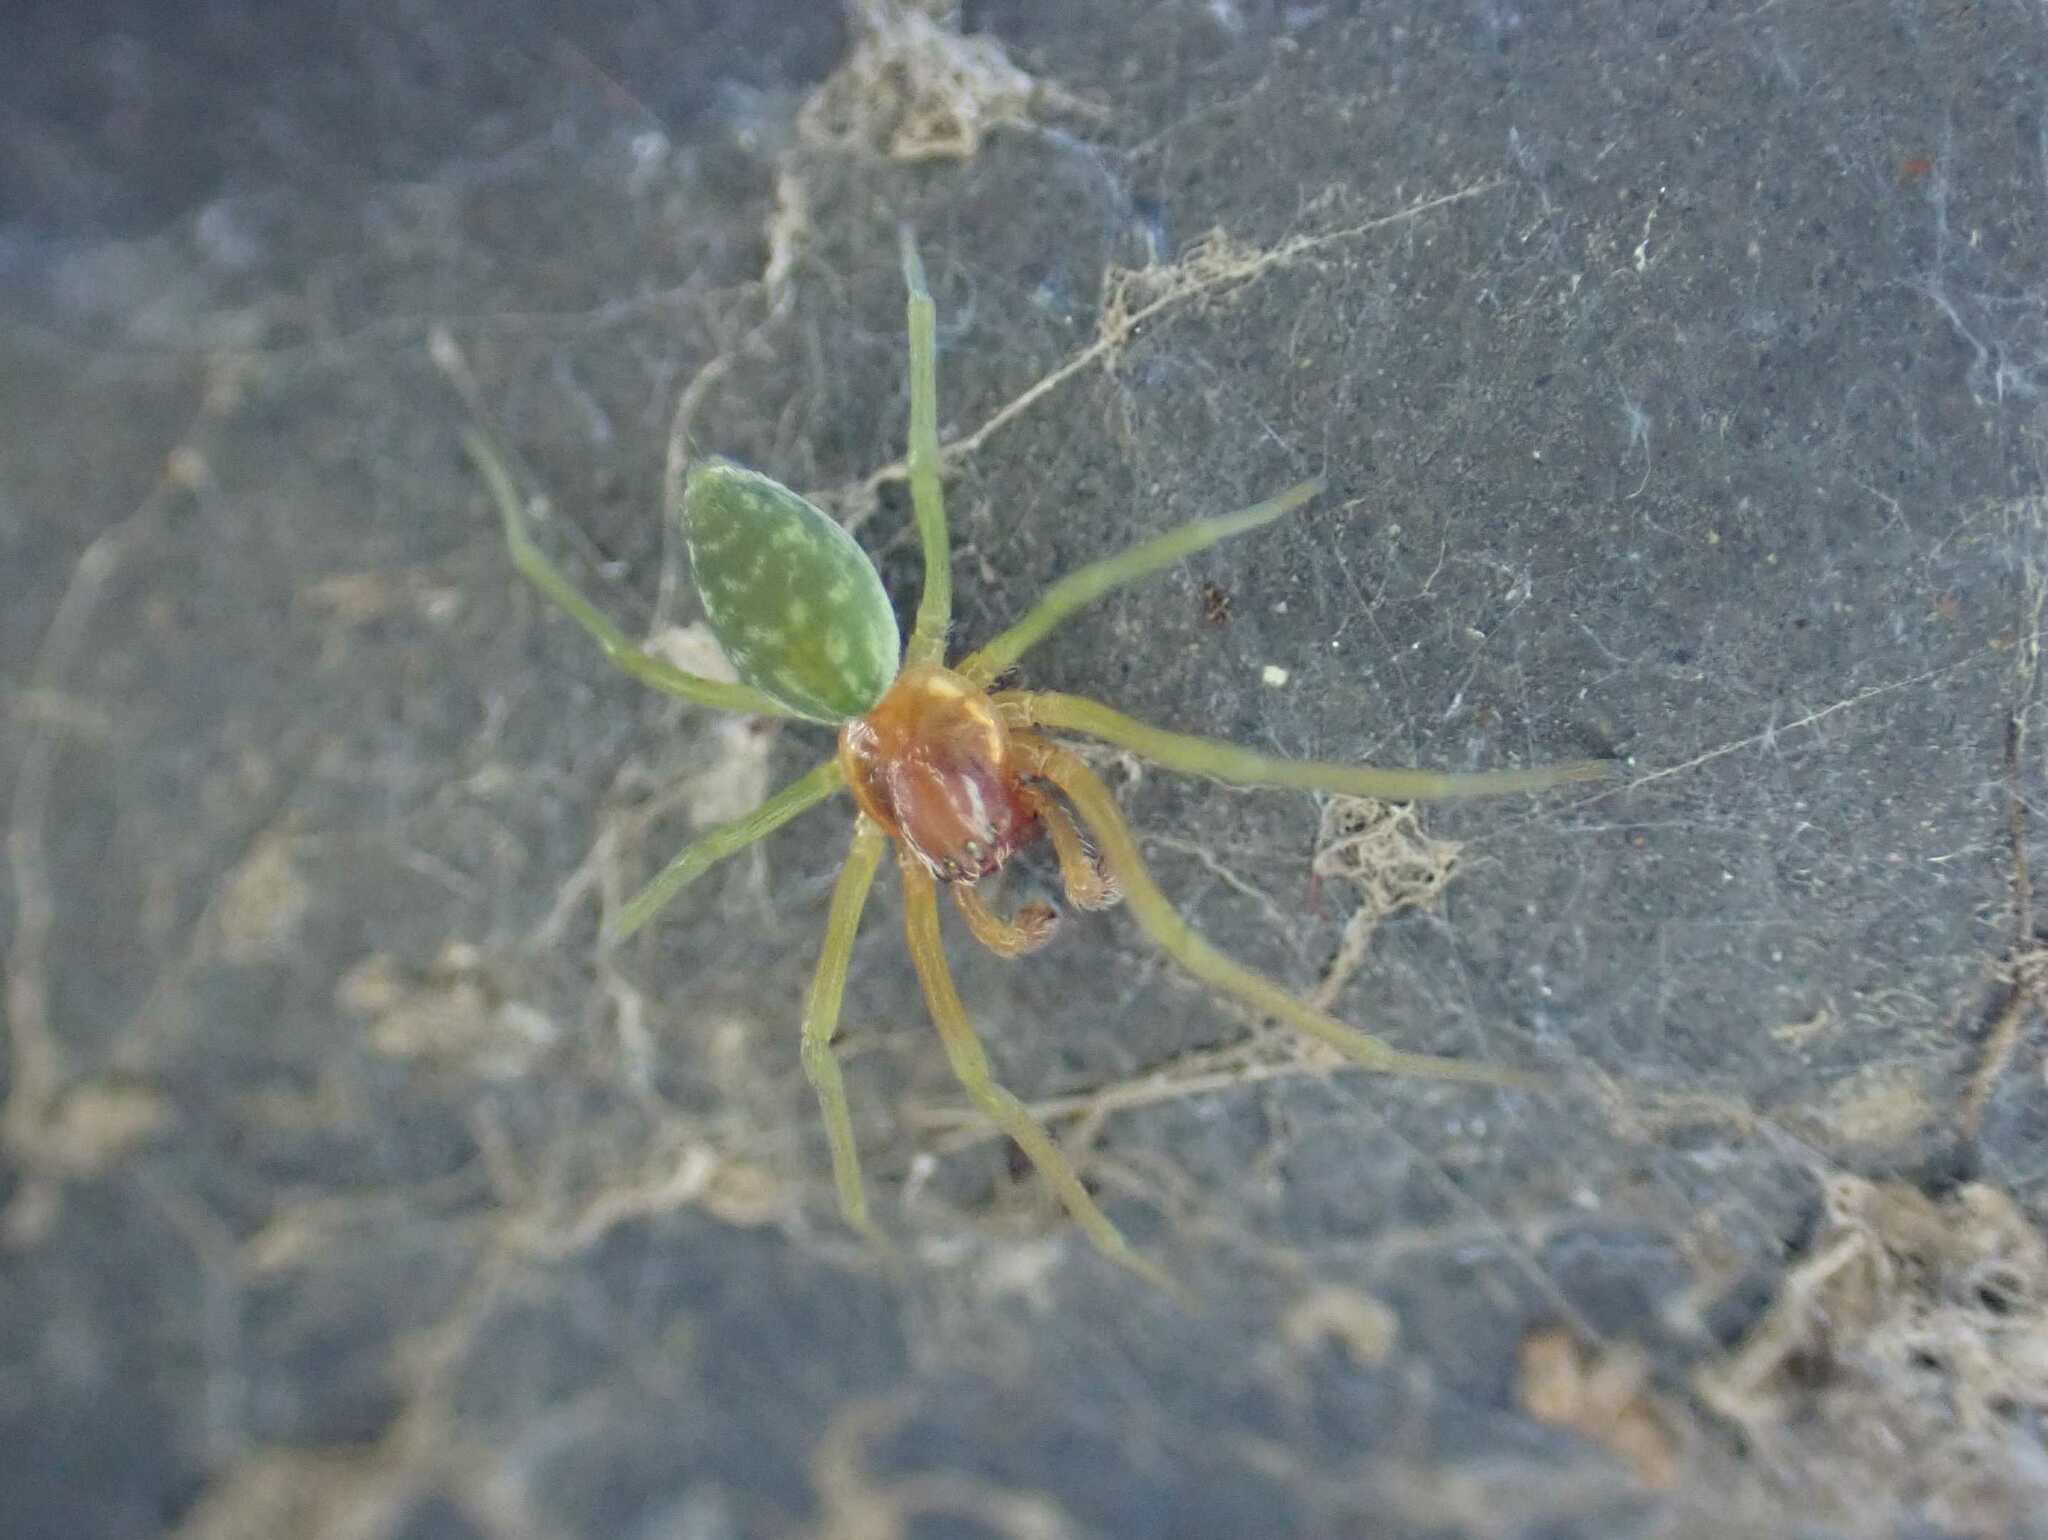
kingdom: Animalia
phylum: Arthropoda
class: Arachnida
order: Araneae
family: Dictynidae
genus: Nigma
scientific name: Nigma walckenaeri
